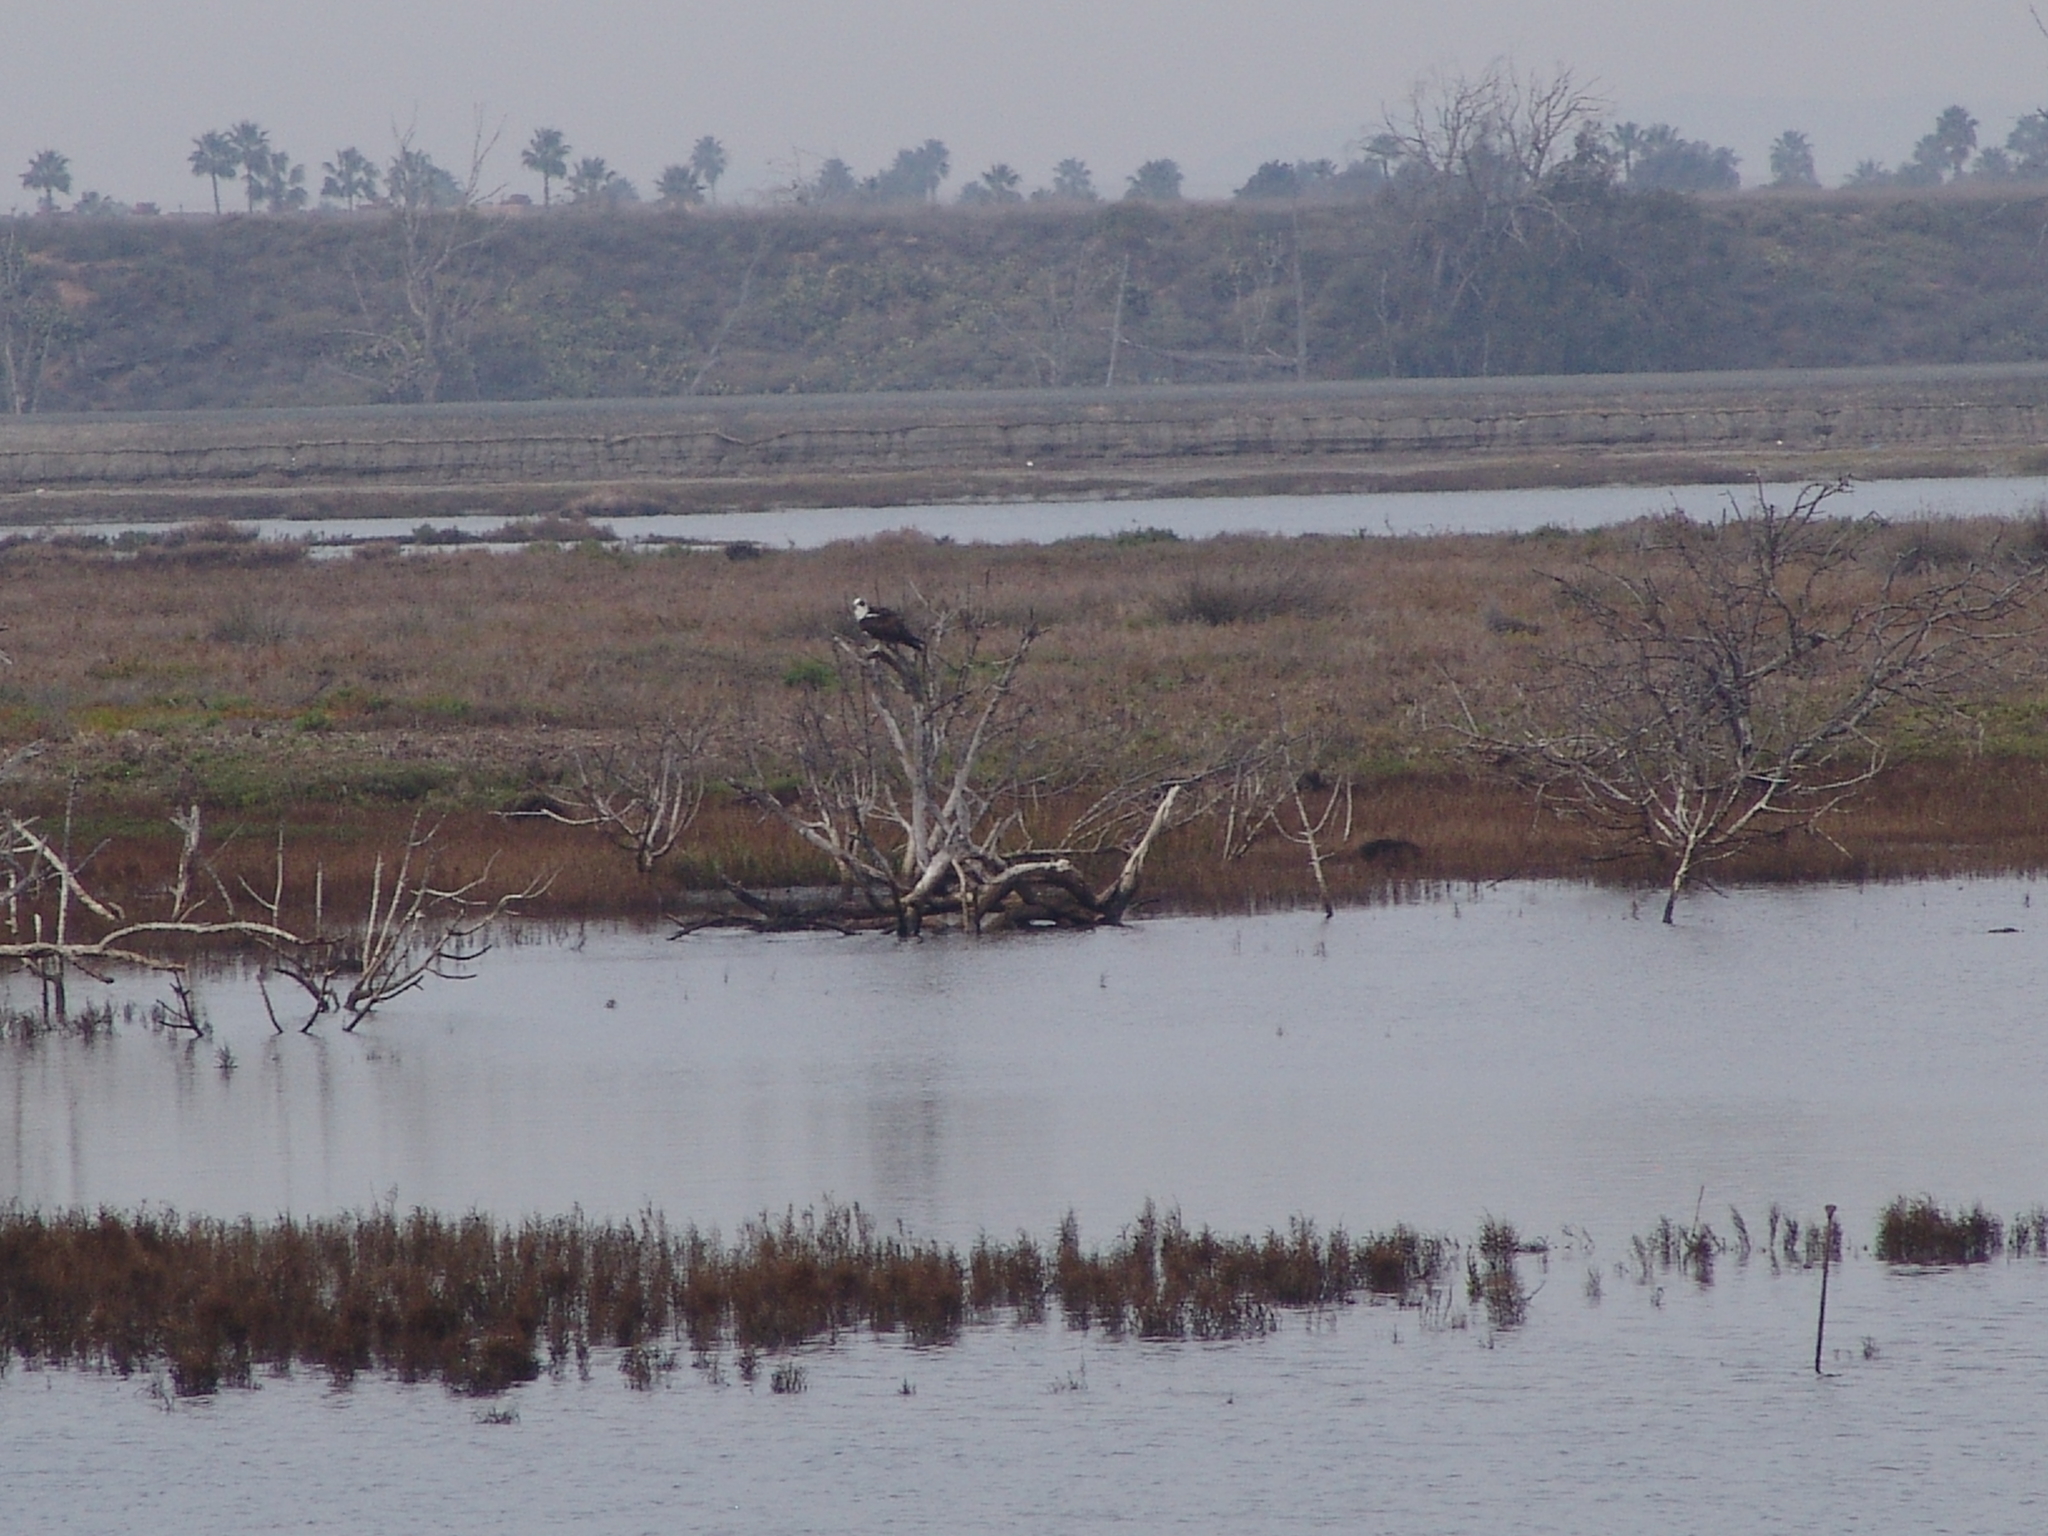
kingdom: Animalia
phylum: Chordata
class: Aves
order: Accipitriformes
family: Pandionidae
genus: Pandion
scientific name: Pandion haliaetus
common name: Osprey
